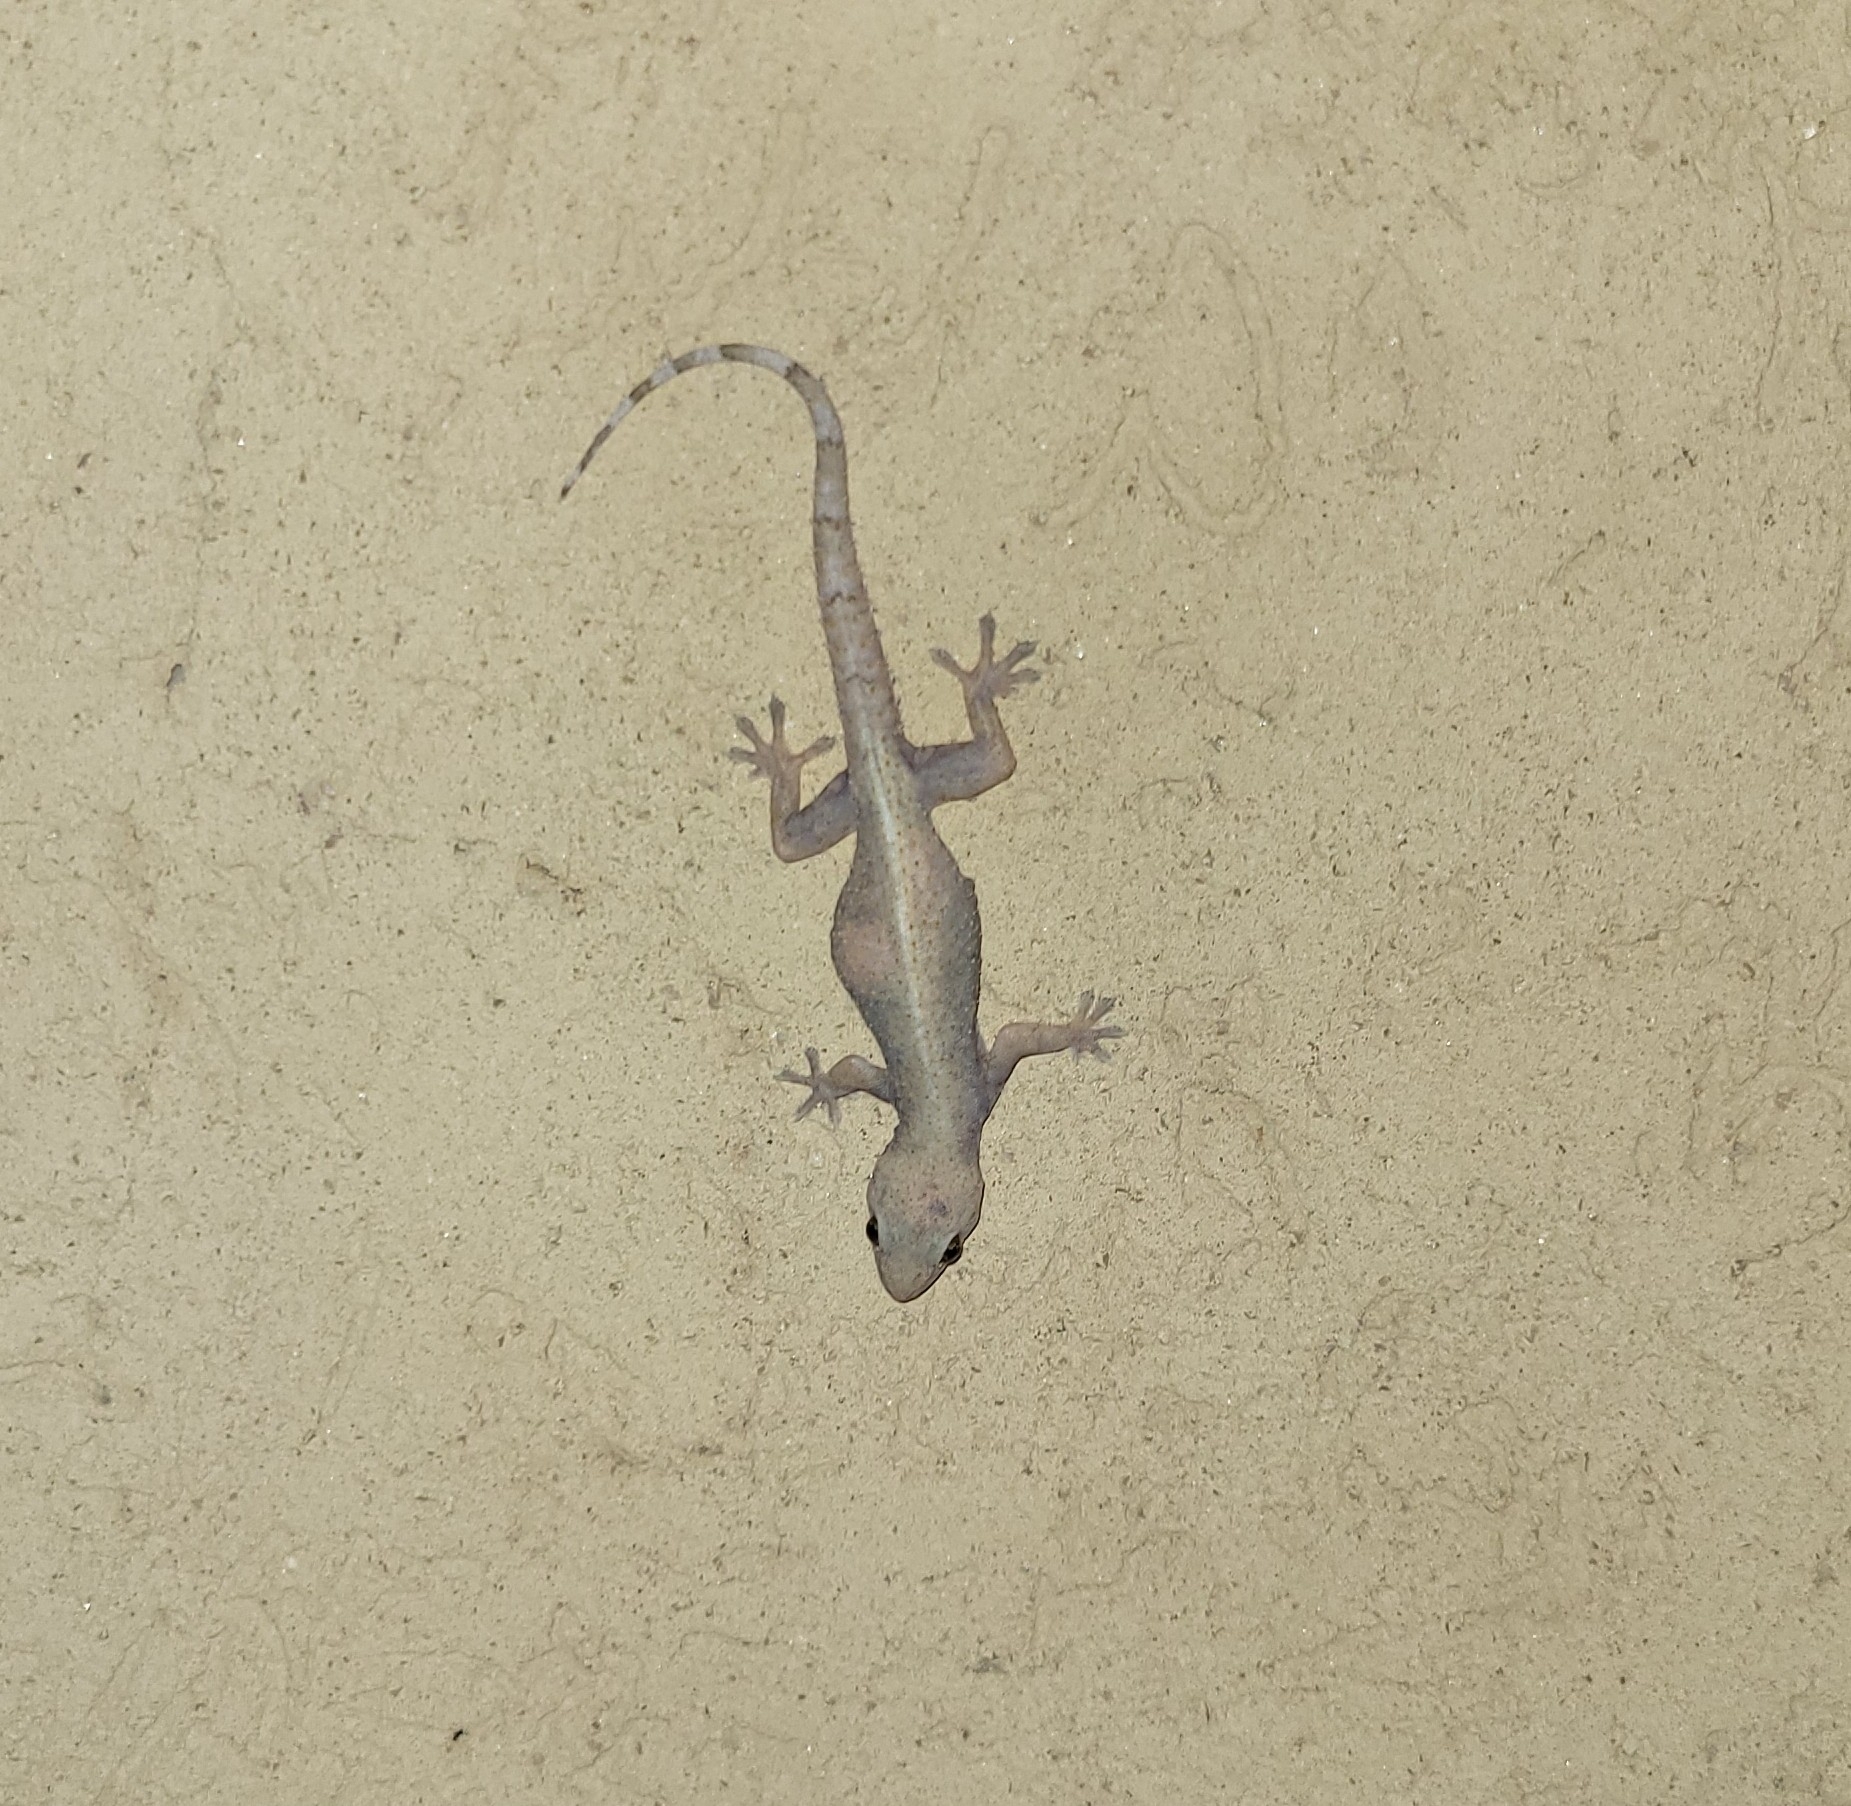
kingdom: Animalia
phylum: Chordata
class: Squamata
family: Gekkonidae
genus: Hemidactylus
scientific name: Hemidactylus mabouia
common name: House gecko
